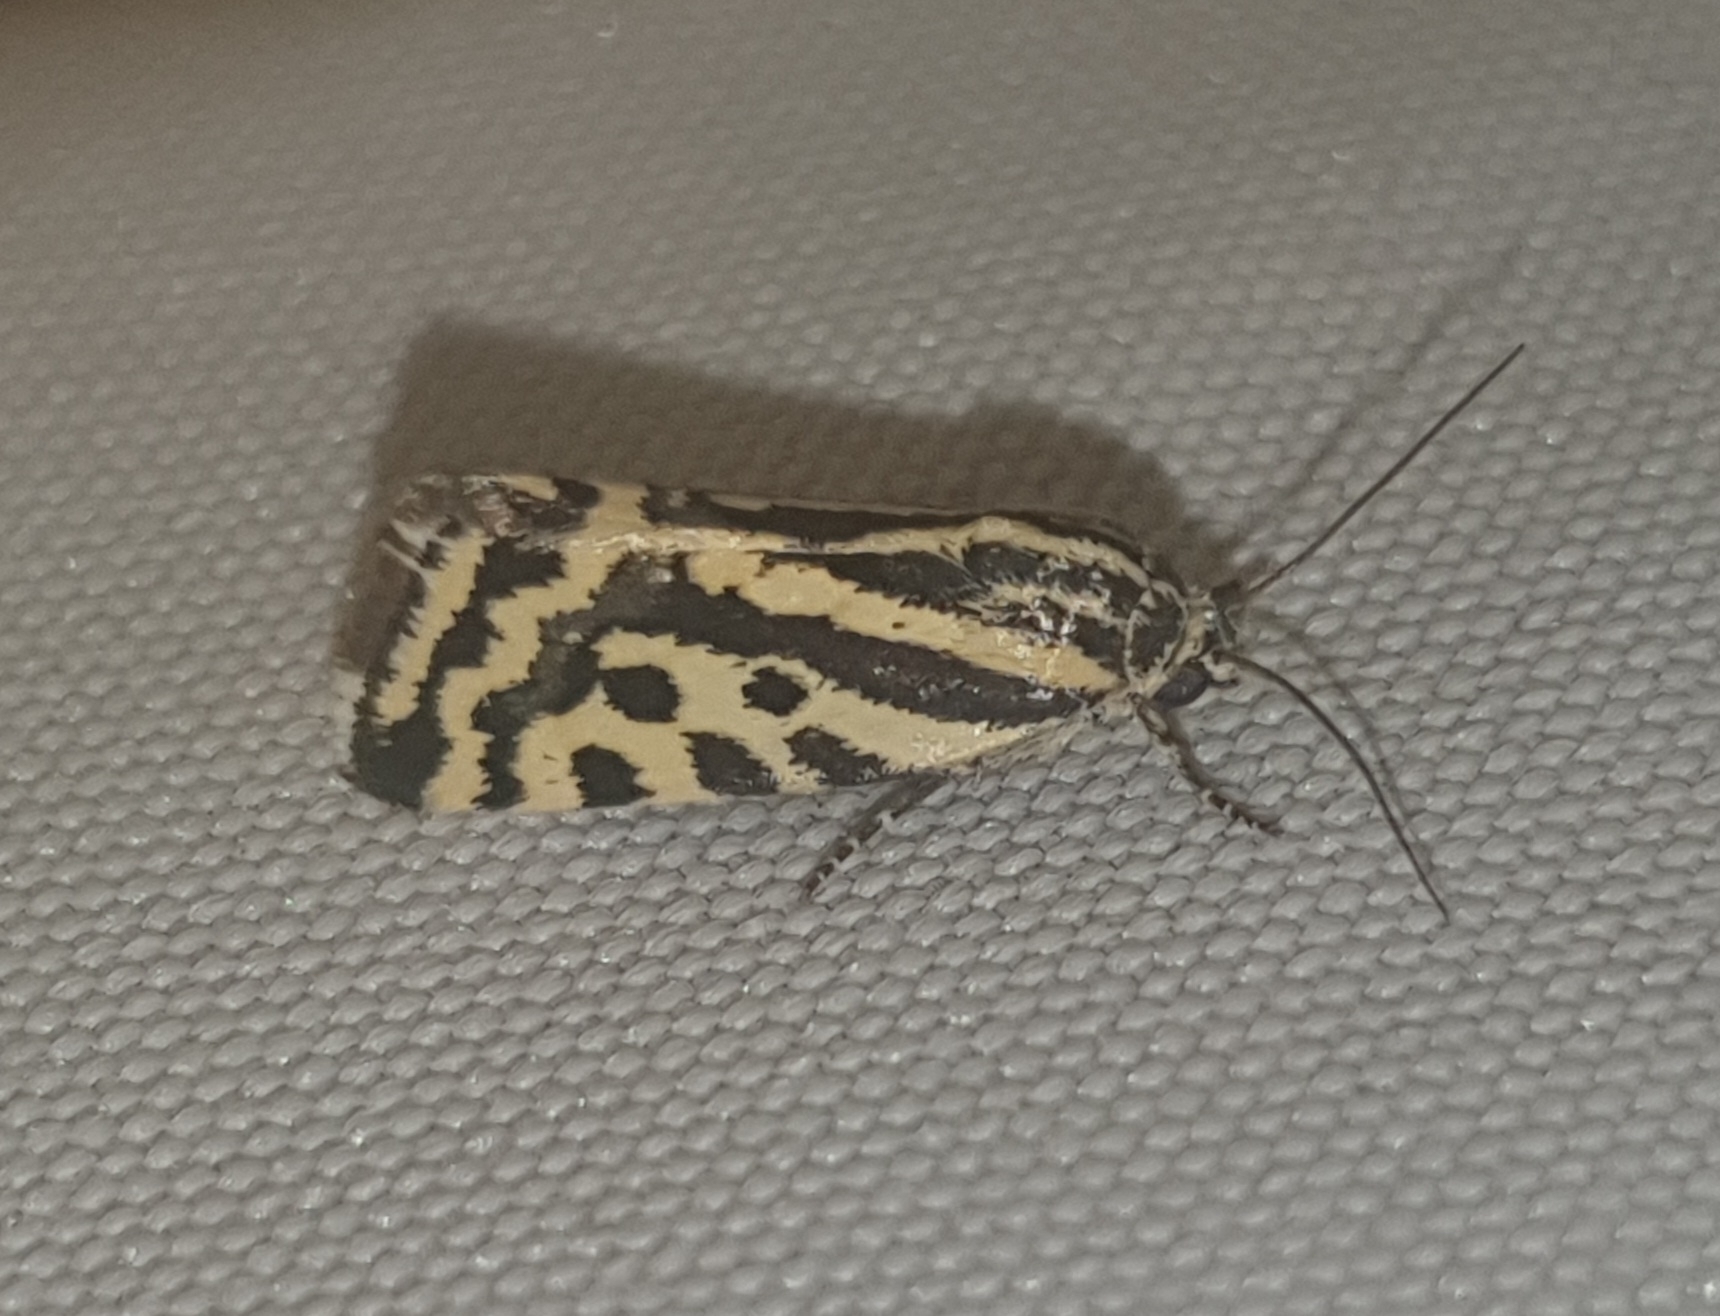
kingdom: Animalia
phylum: Arthropoda
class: Insecta
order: Lepidoptera
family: Noctuidae
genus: Acontia
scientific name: Acontia trabealis
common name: Spotted sulphur
